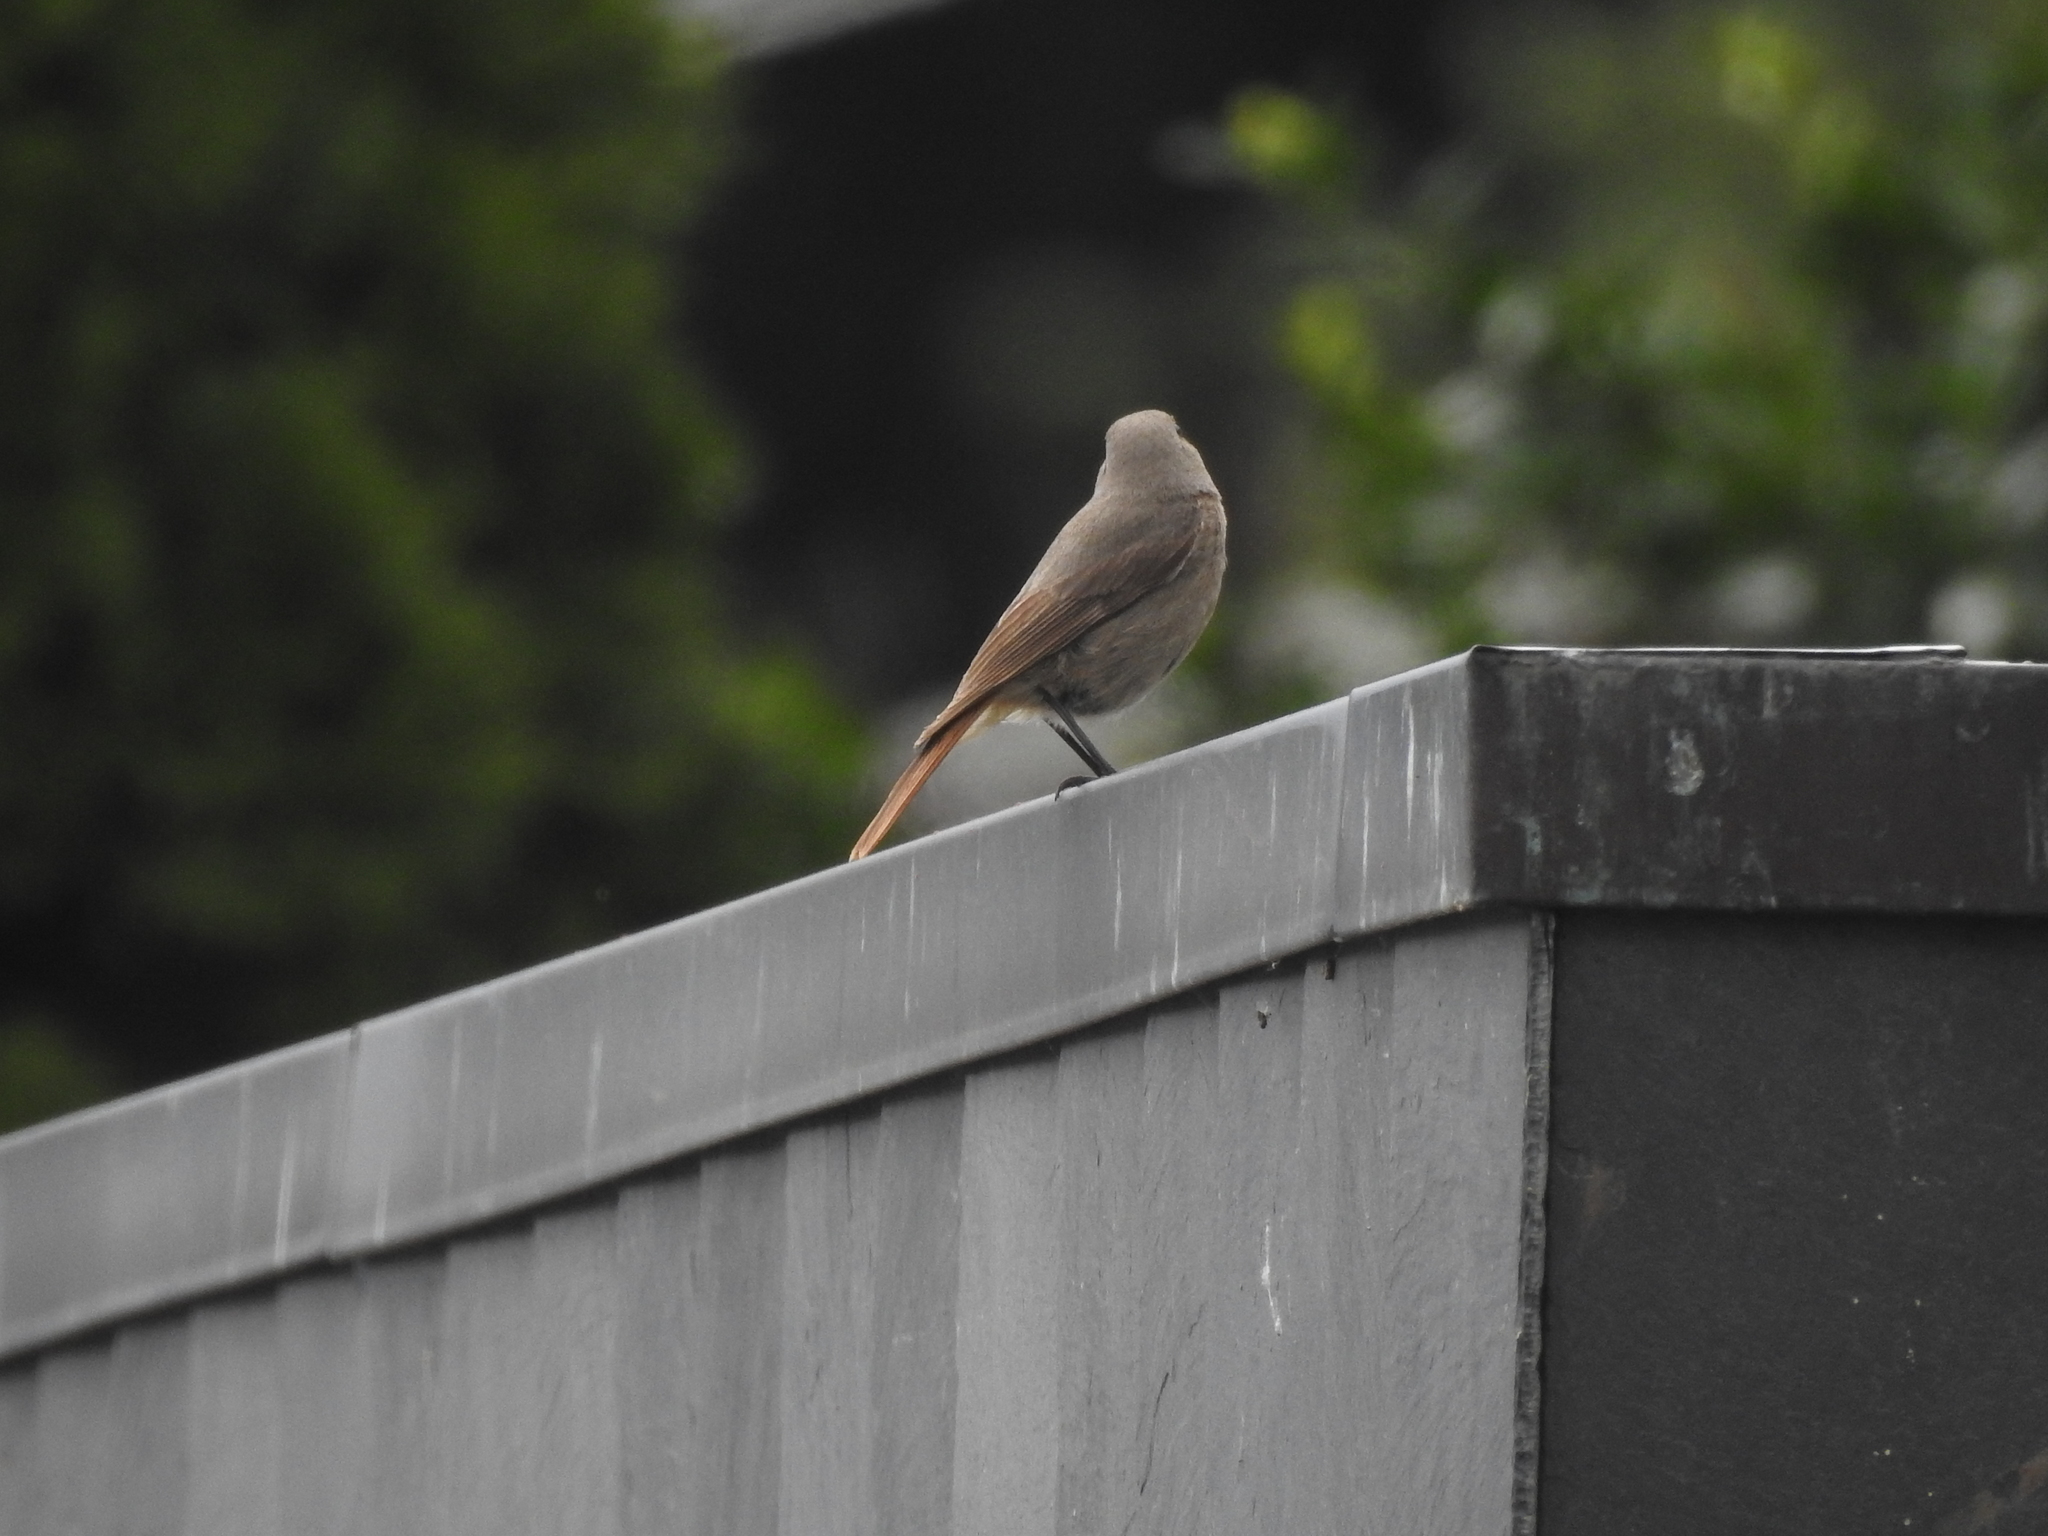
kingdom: Animalia
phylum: Chordata
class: Aves
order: Passeriformes
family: Muscicapidae
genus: Phoenicurus
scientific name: Phoenicurus ochruros
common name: Black redstart
